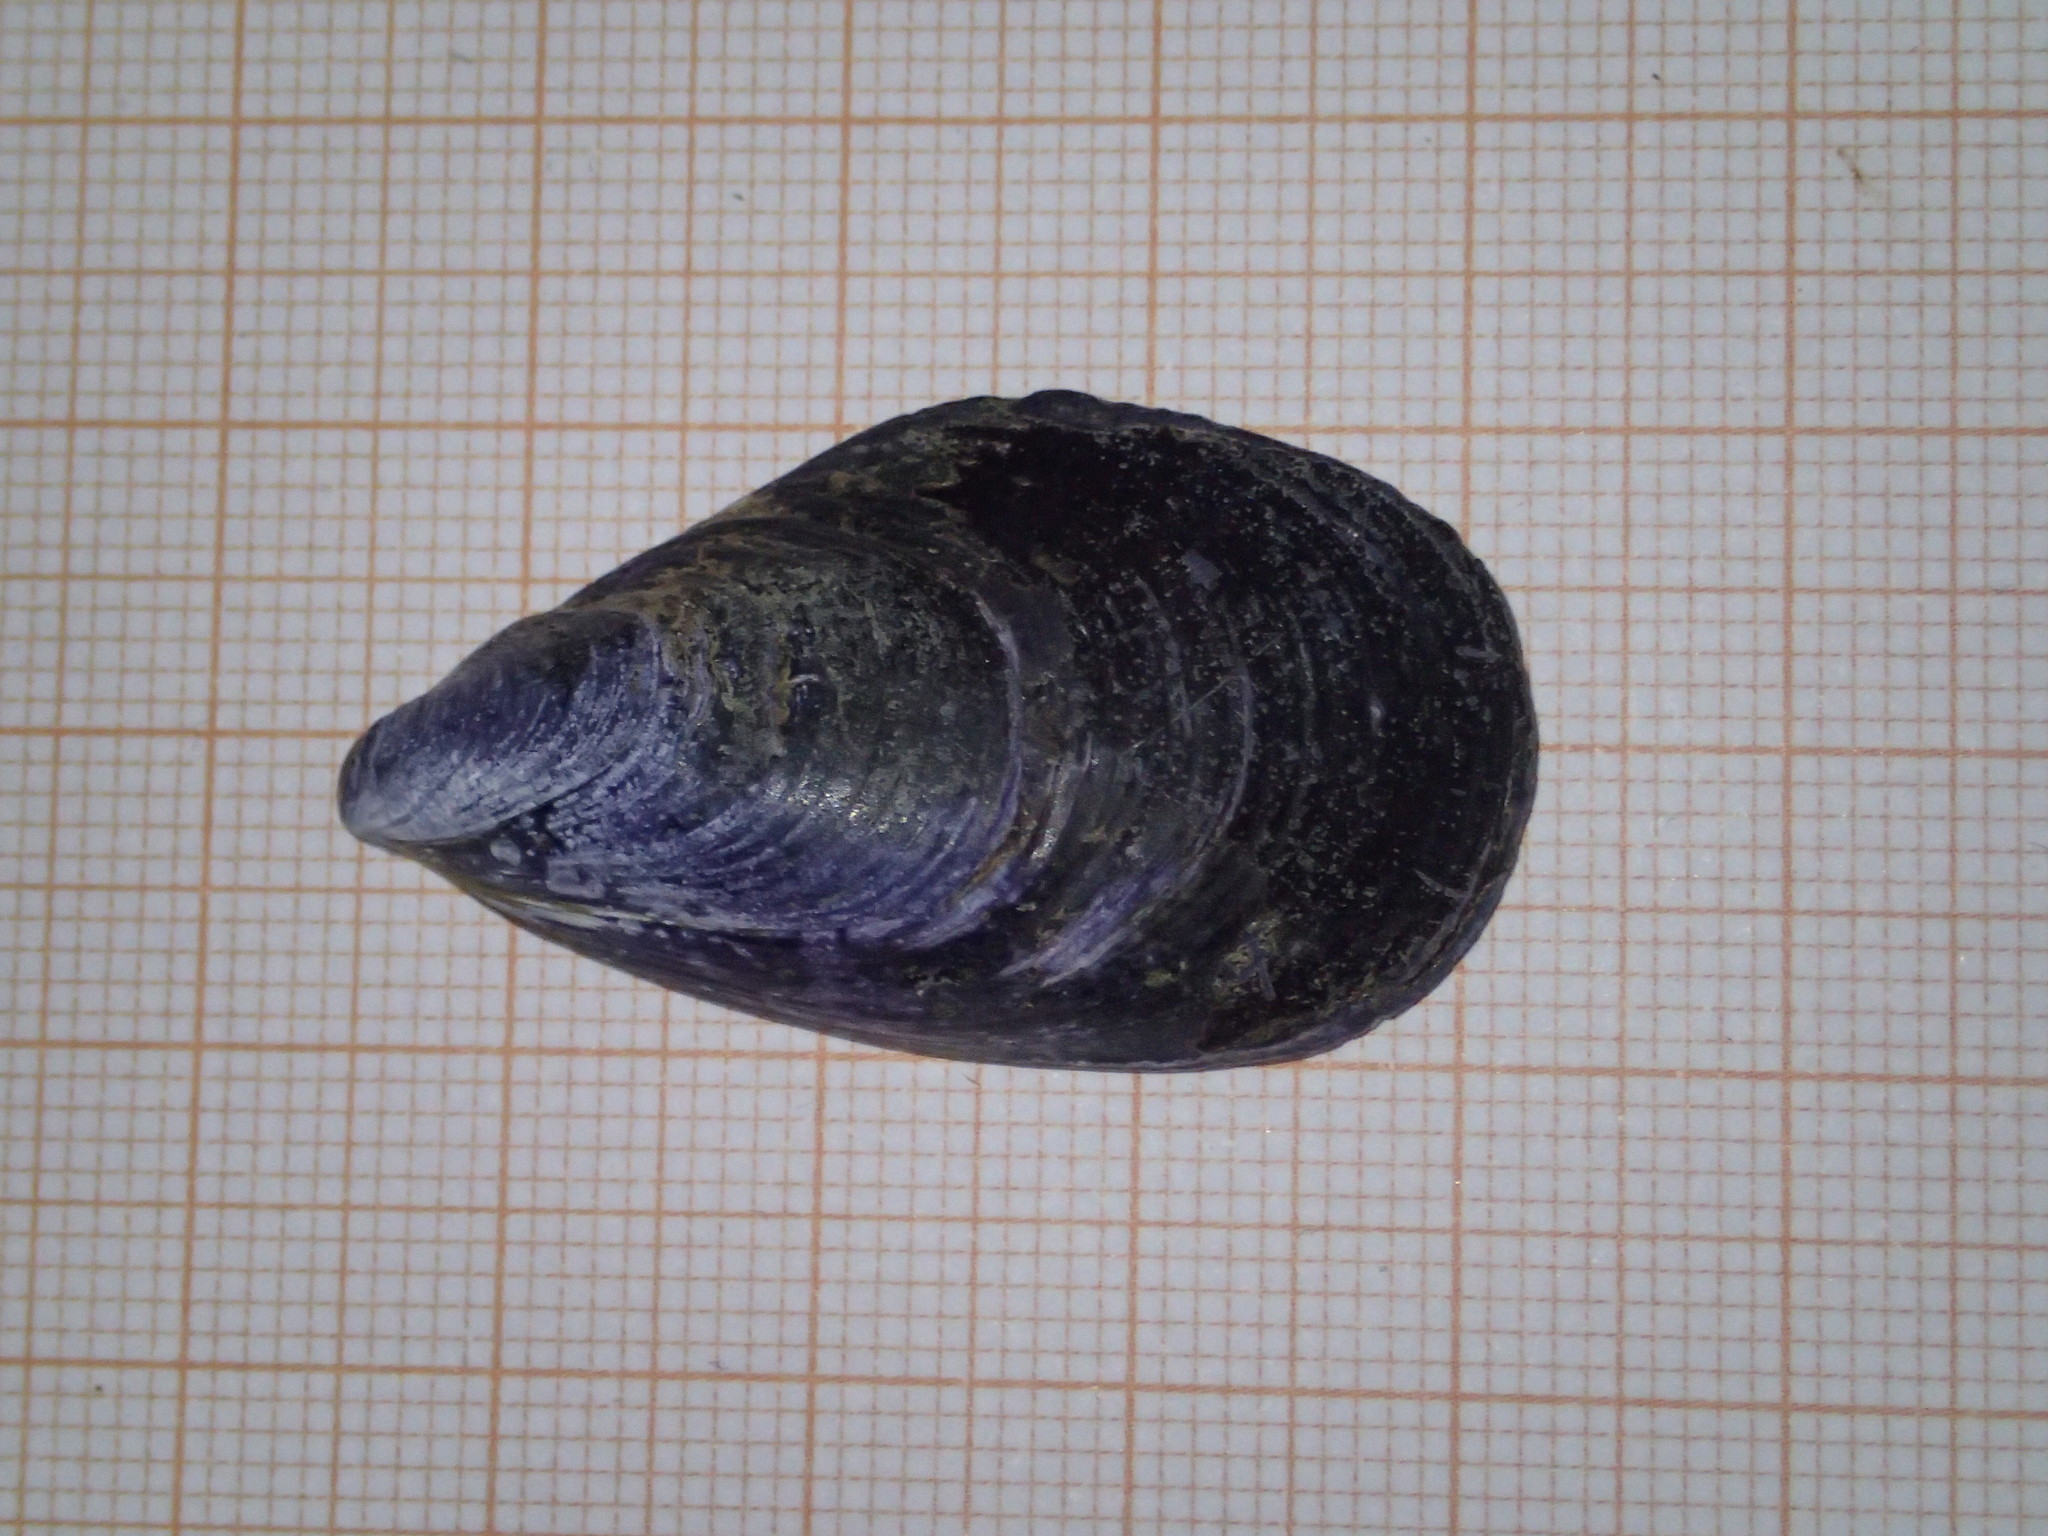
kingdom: Animalia
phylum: Mollusca
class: Bivalvia
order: Mytilida
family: Mytilidae
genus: Mytilus
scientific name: Mytilus galloprovincialis
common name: Mediterranean mussel
